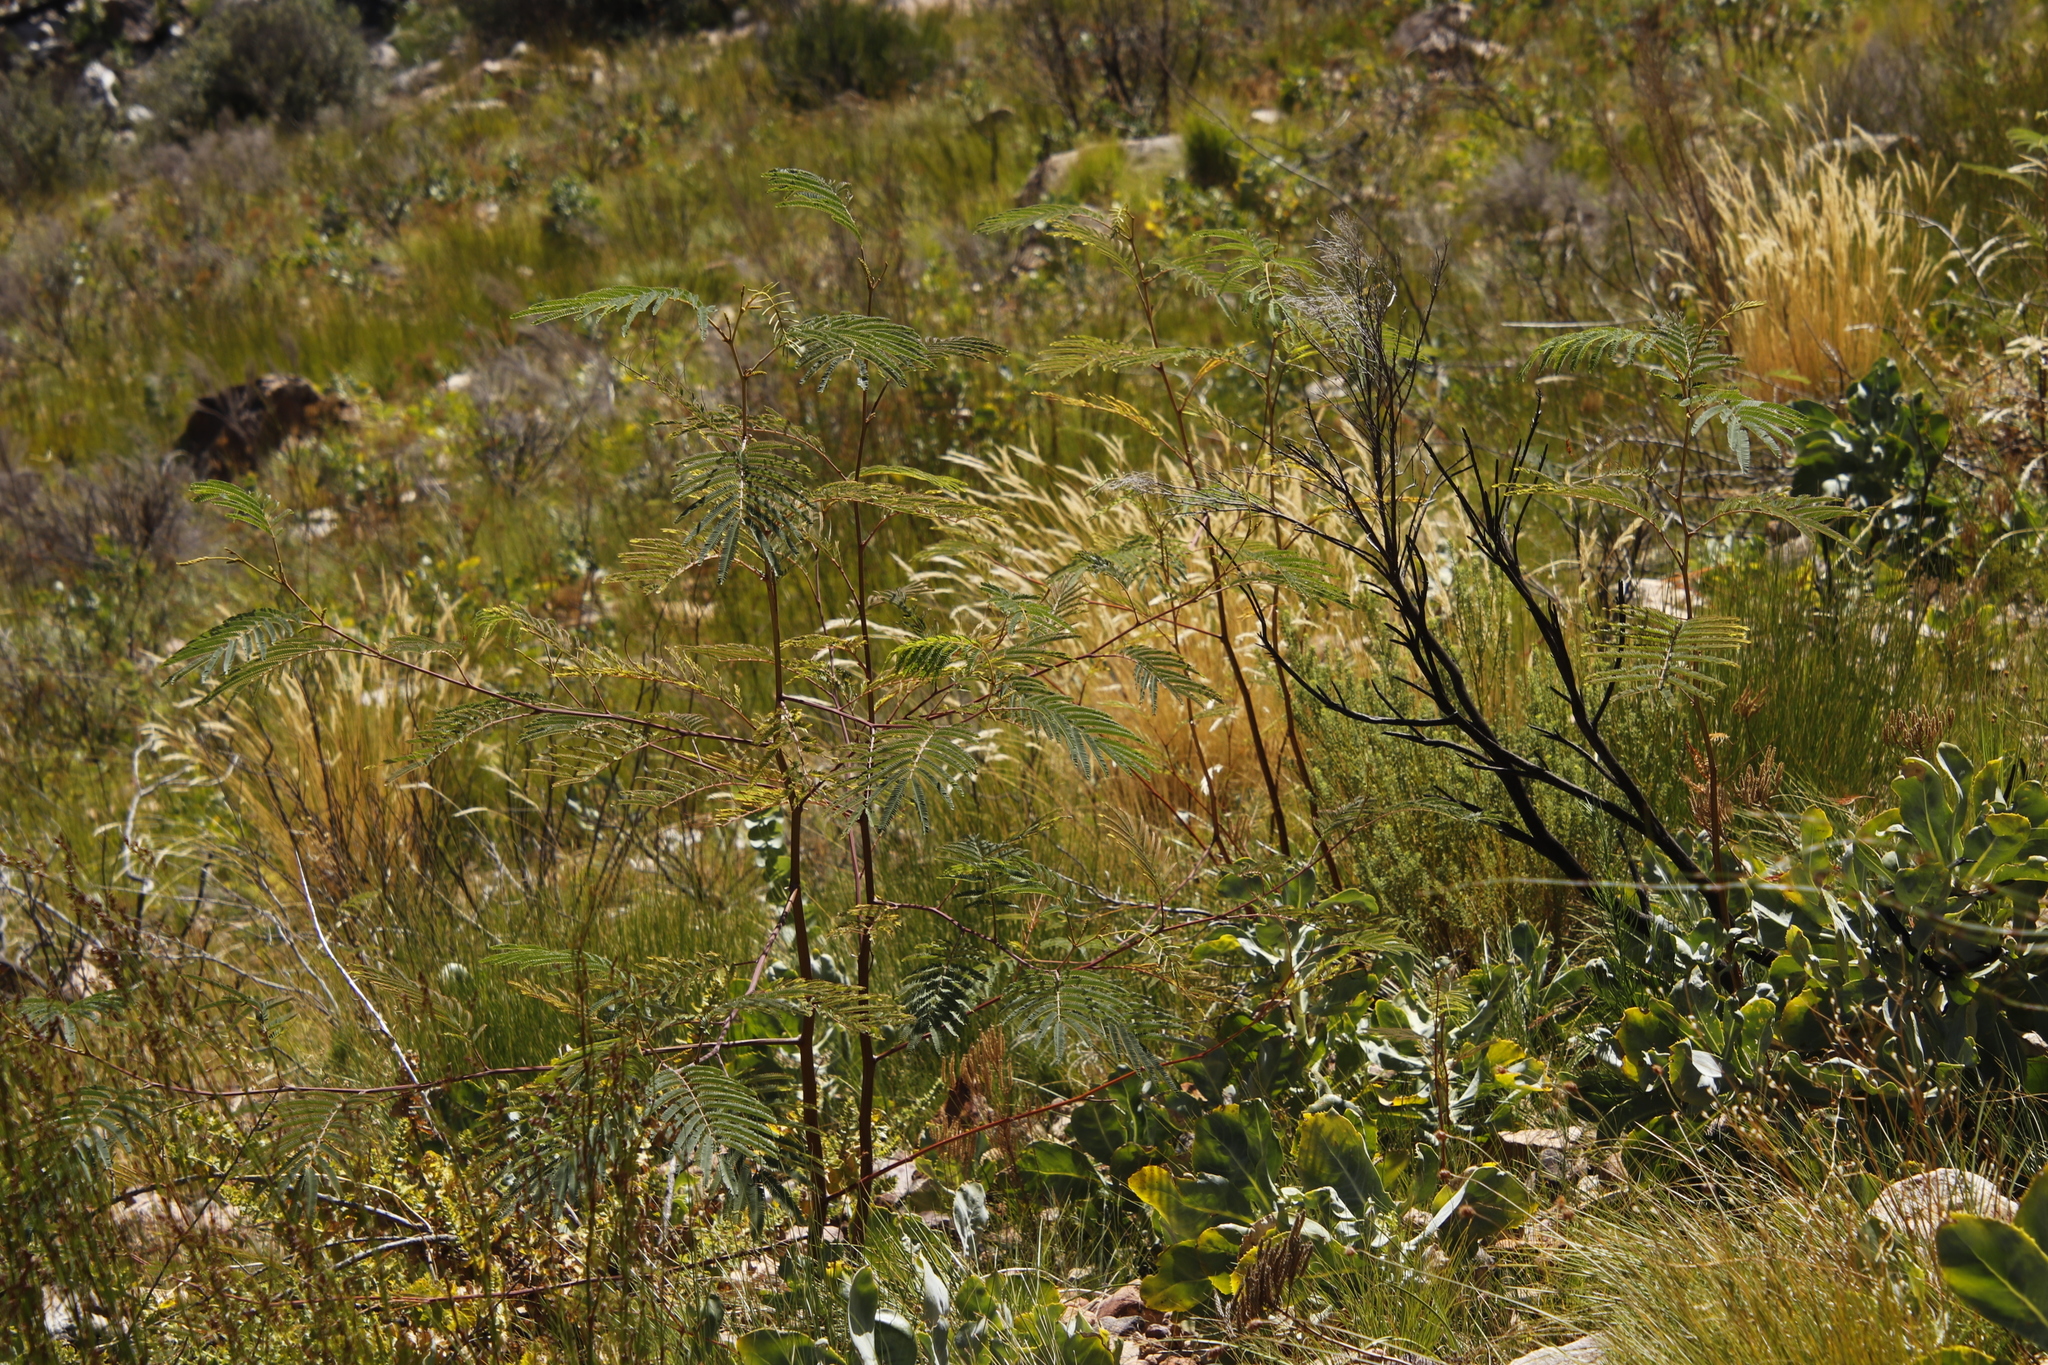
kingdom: Plantae
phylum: Tracheophyta
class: Magnoliopsida
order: Fabales
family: Fabaceae
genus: Paraserianthes
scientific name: Paraserianthes lophantha
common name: Plume albizia
